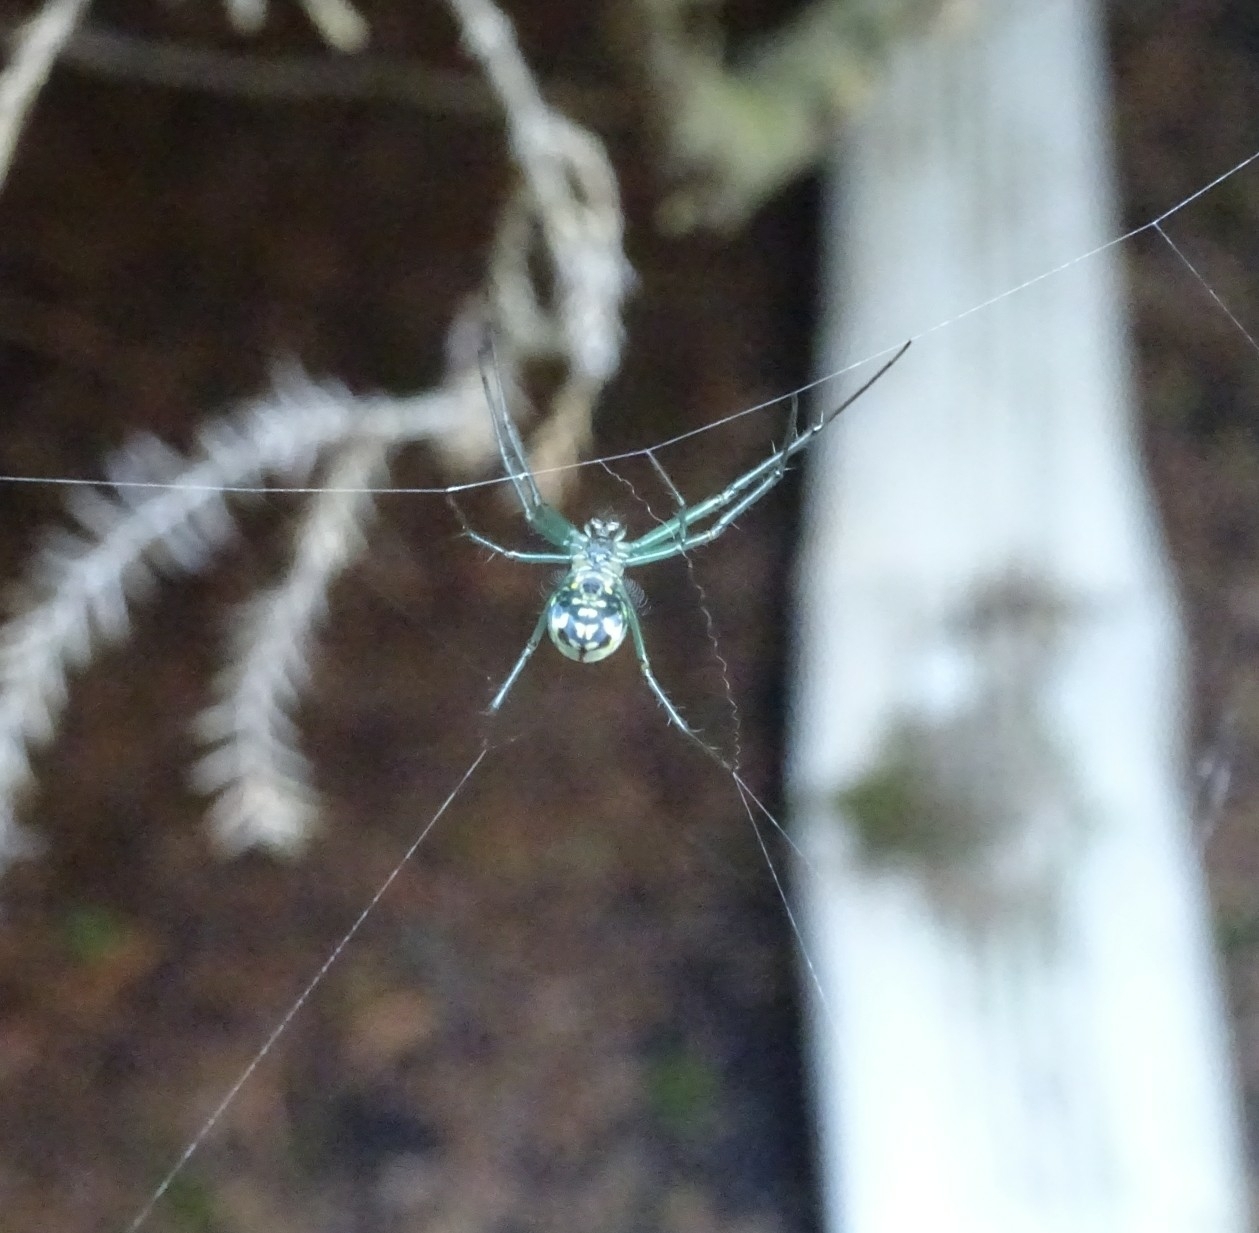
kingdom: Animalia
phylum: Arthropoda
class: Arachnida
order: Araneae
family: Tetragnathidae
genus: Leucauge
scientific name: Leucauge venusta
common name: Longjawed orb weavers
